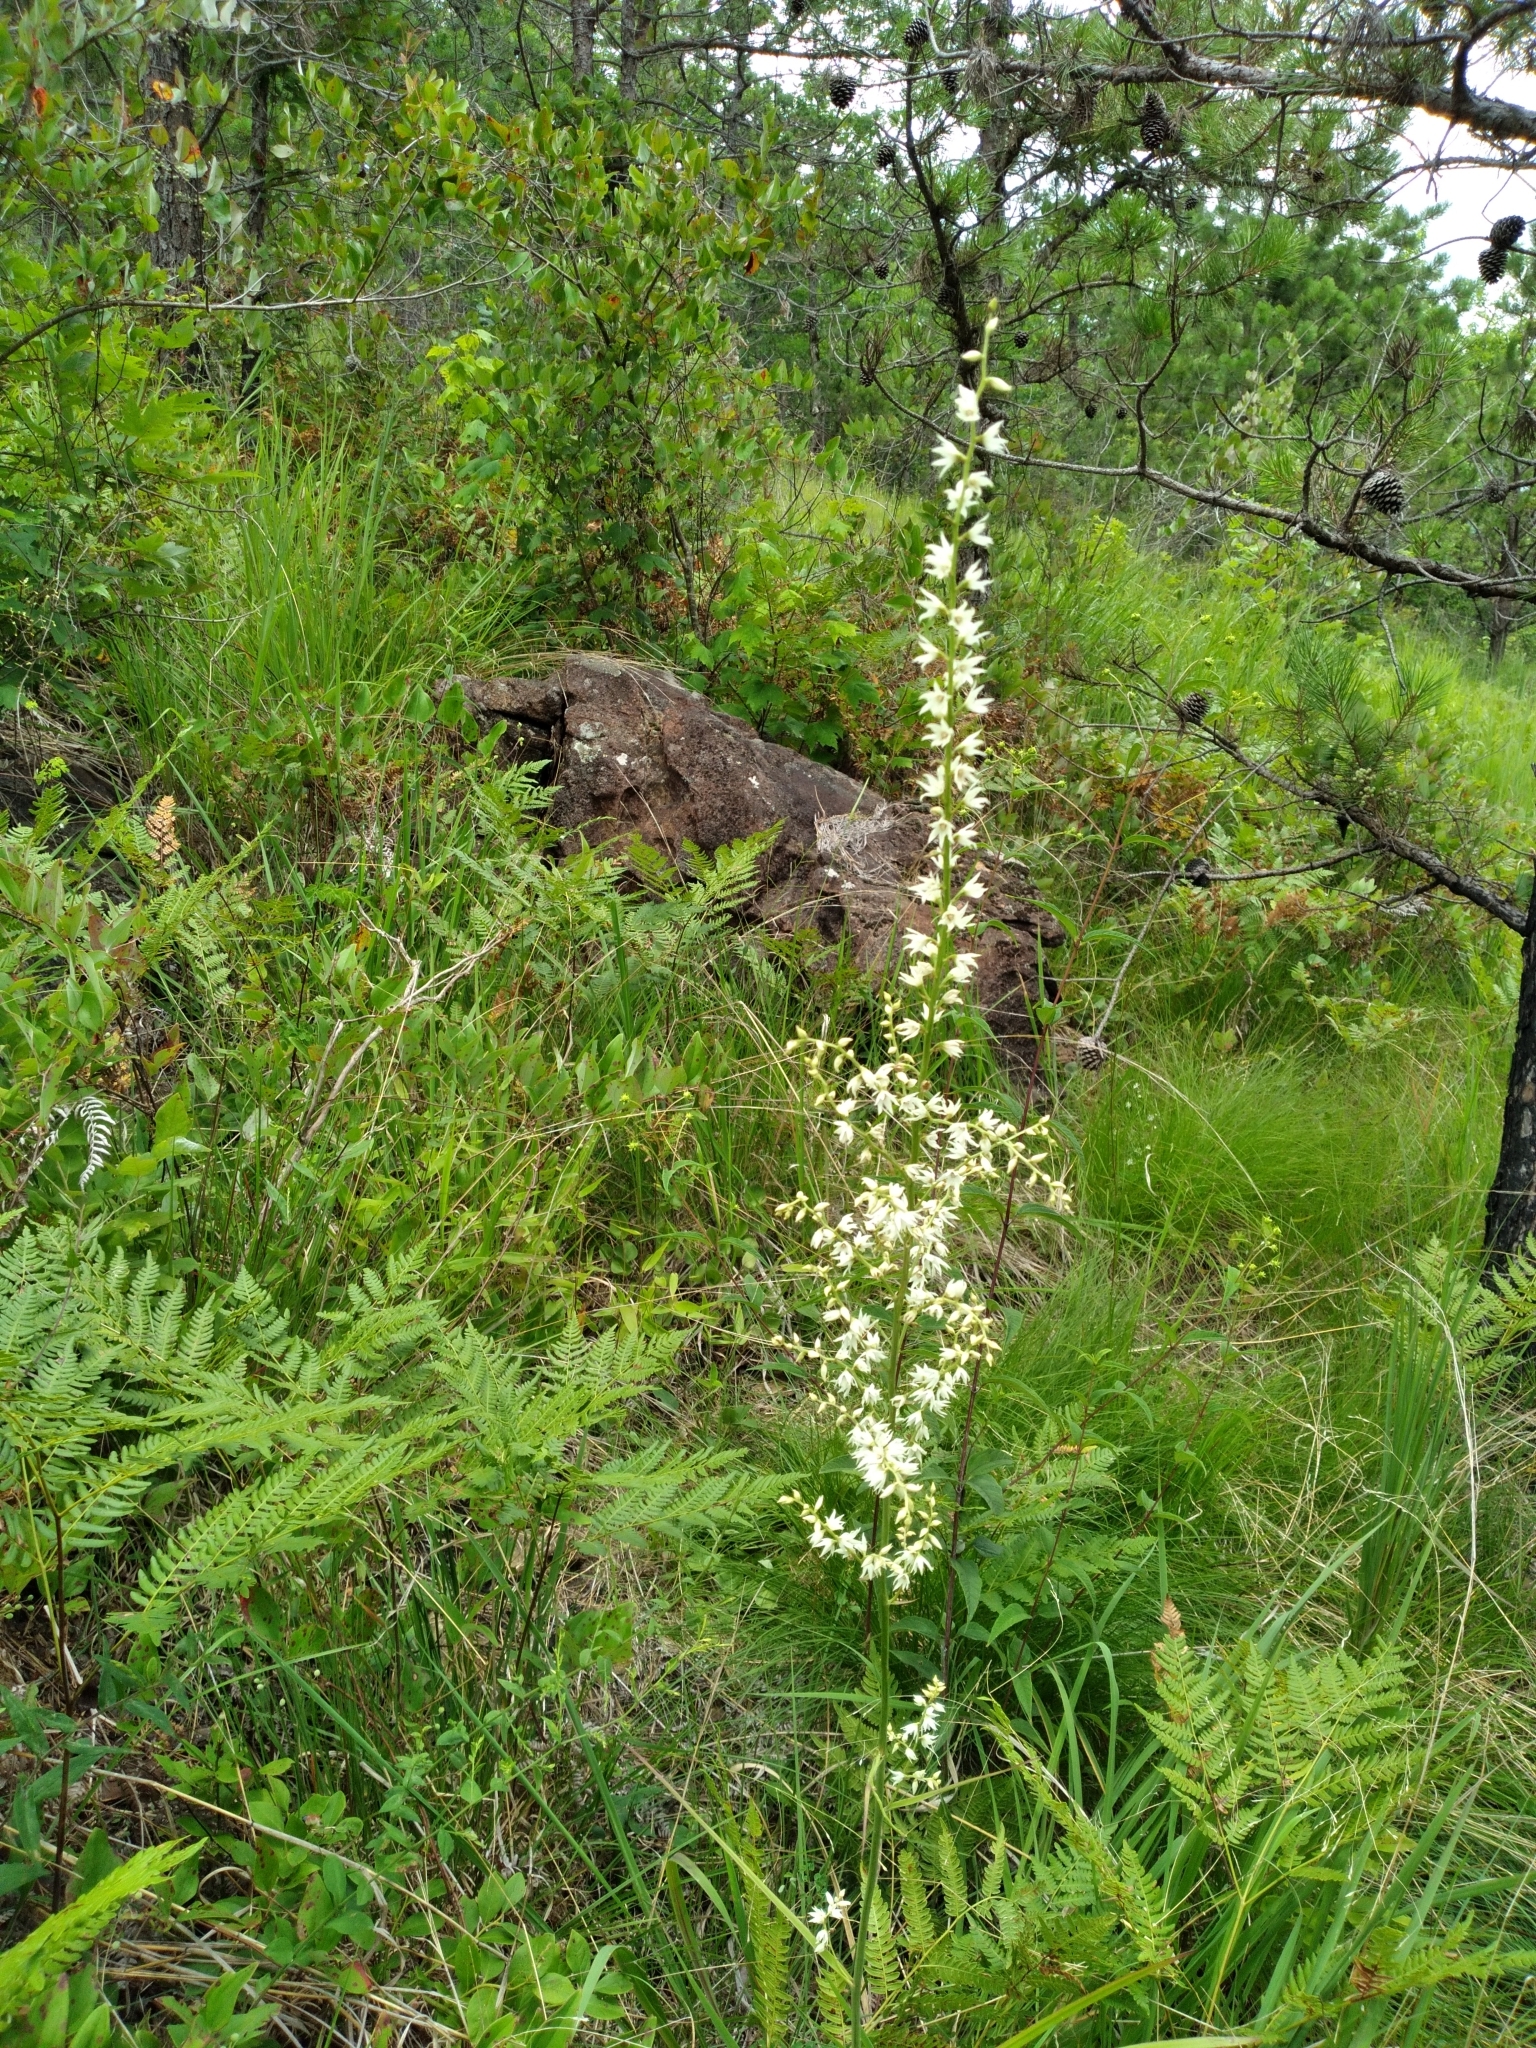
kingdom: Plantae
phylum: Tracheophyta
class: Liliopsida
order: Liliales
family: Melanthiaceae
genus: Stenanthium
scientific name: Stenanthium gramineum
